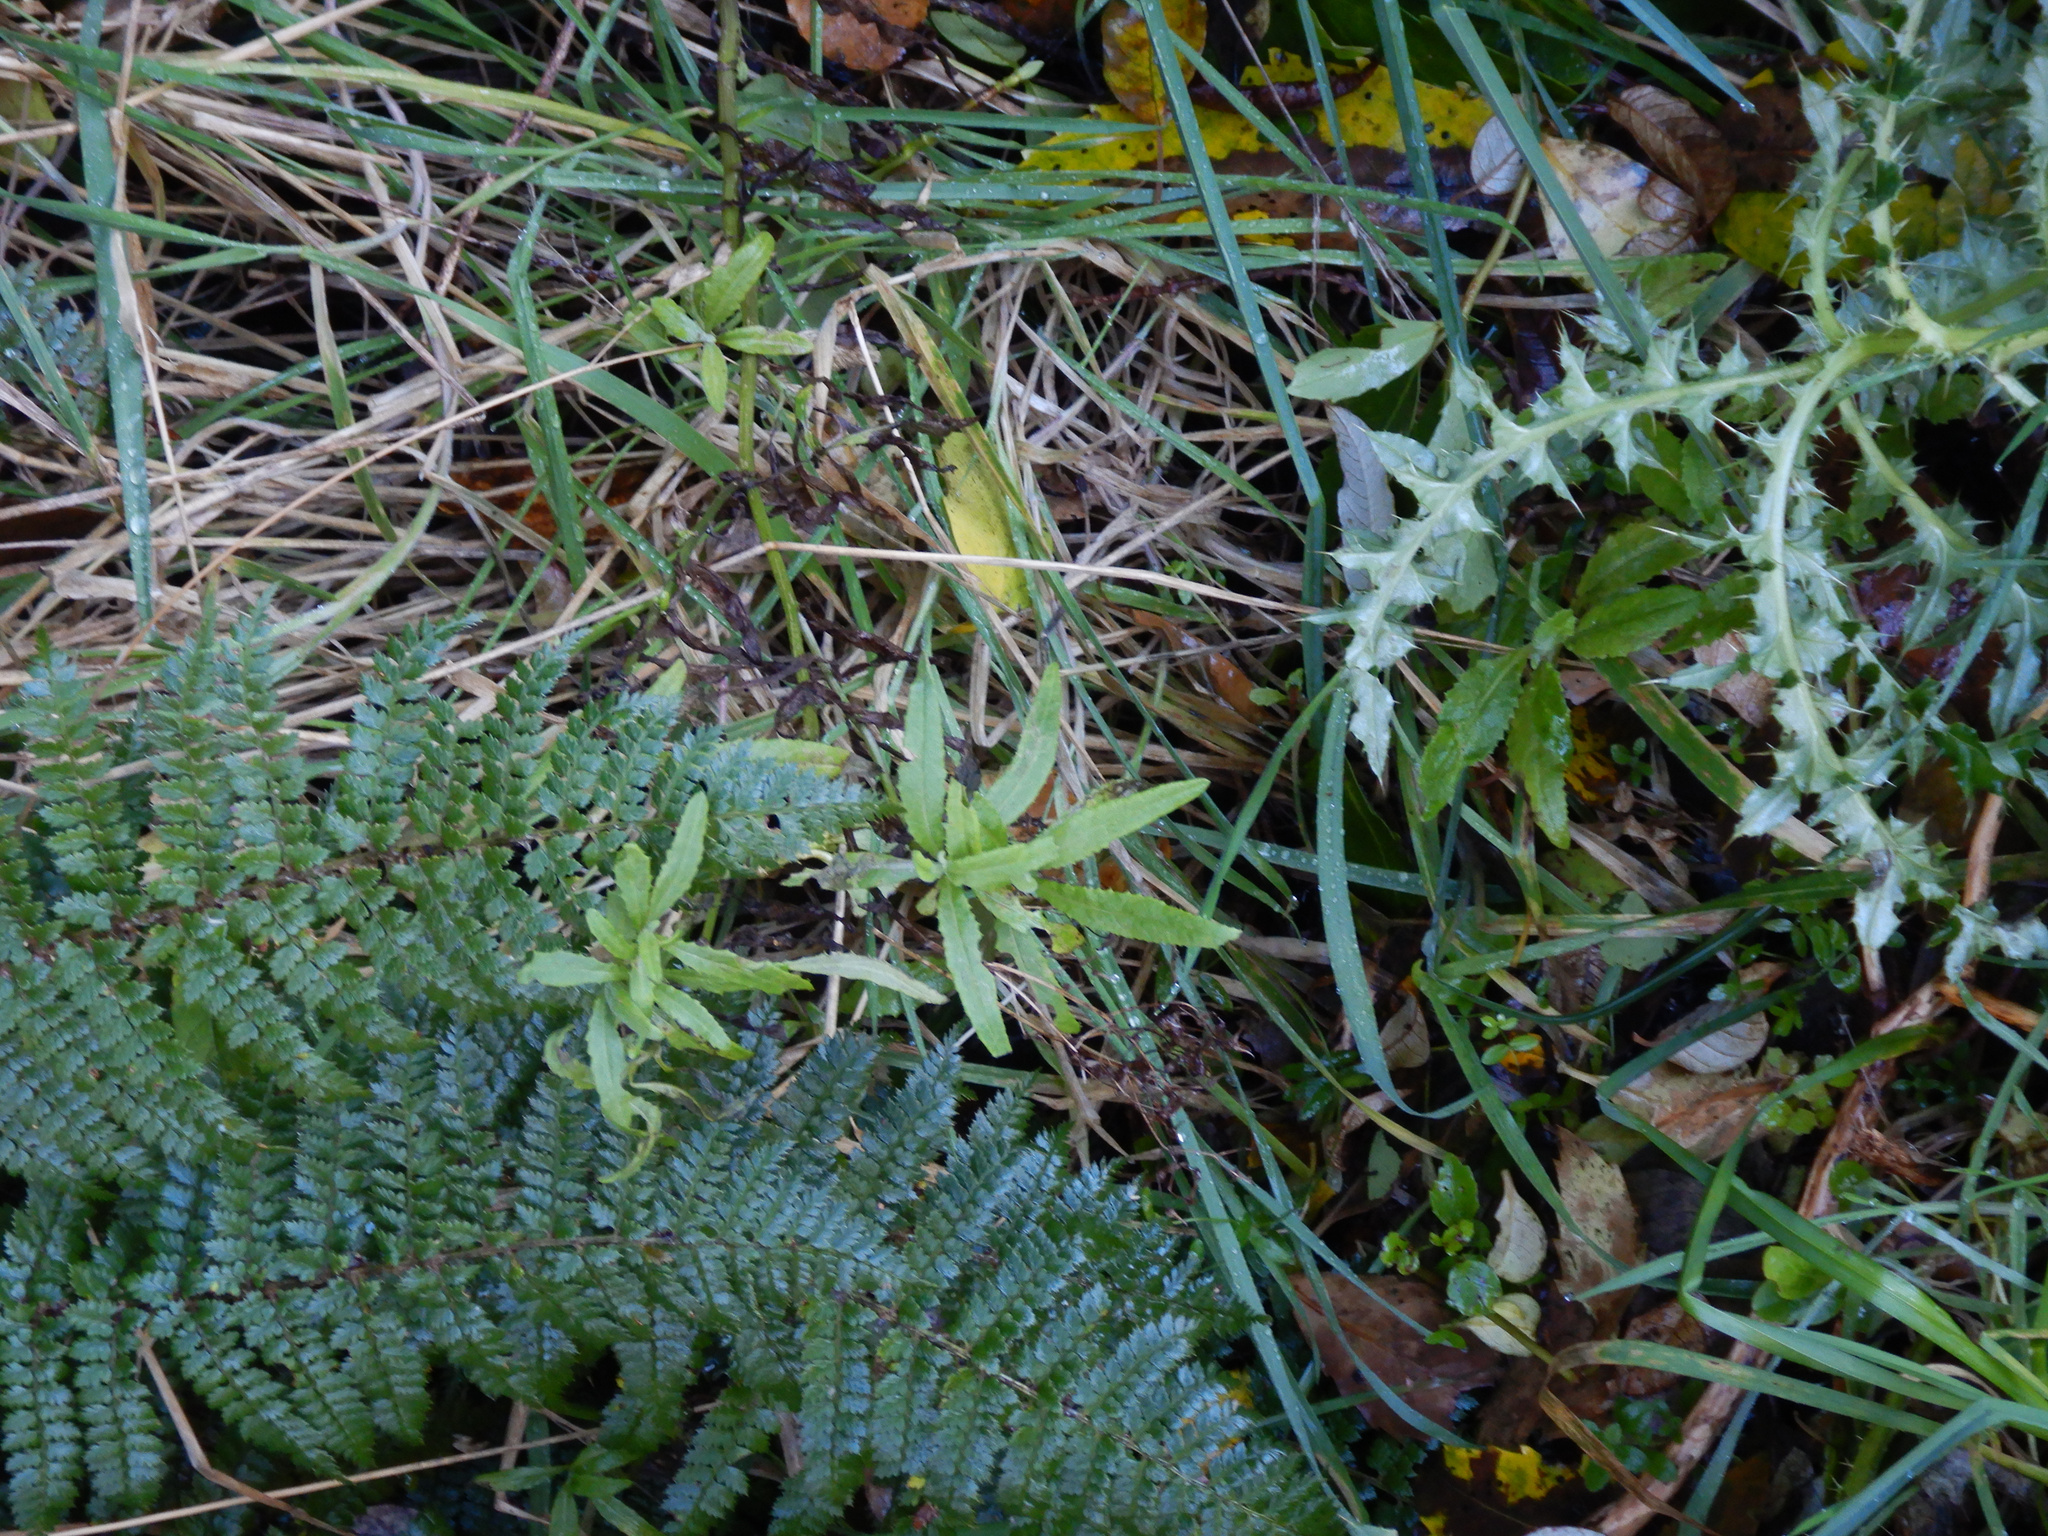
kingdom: Plantae
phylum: Tracheophyta
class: Magnoliopsida
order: Asterales
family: Asteraceae
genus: Senecio
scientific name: Senecio minimus
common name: Toothed fireweed
